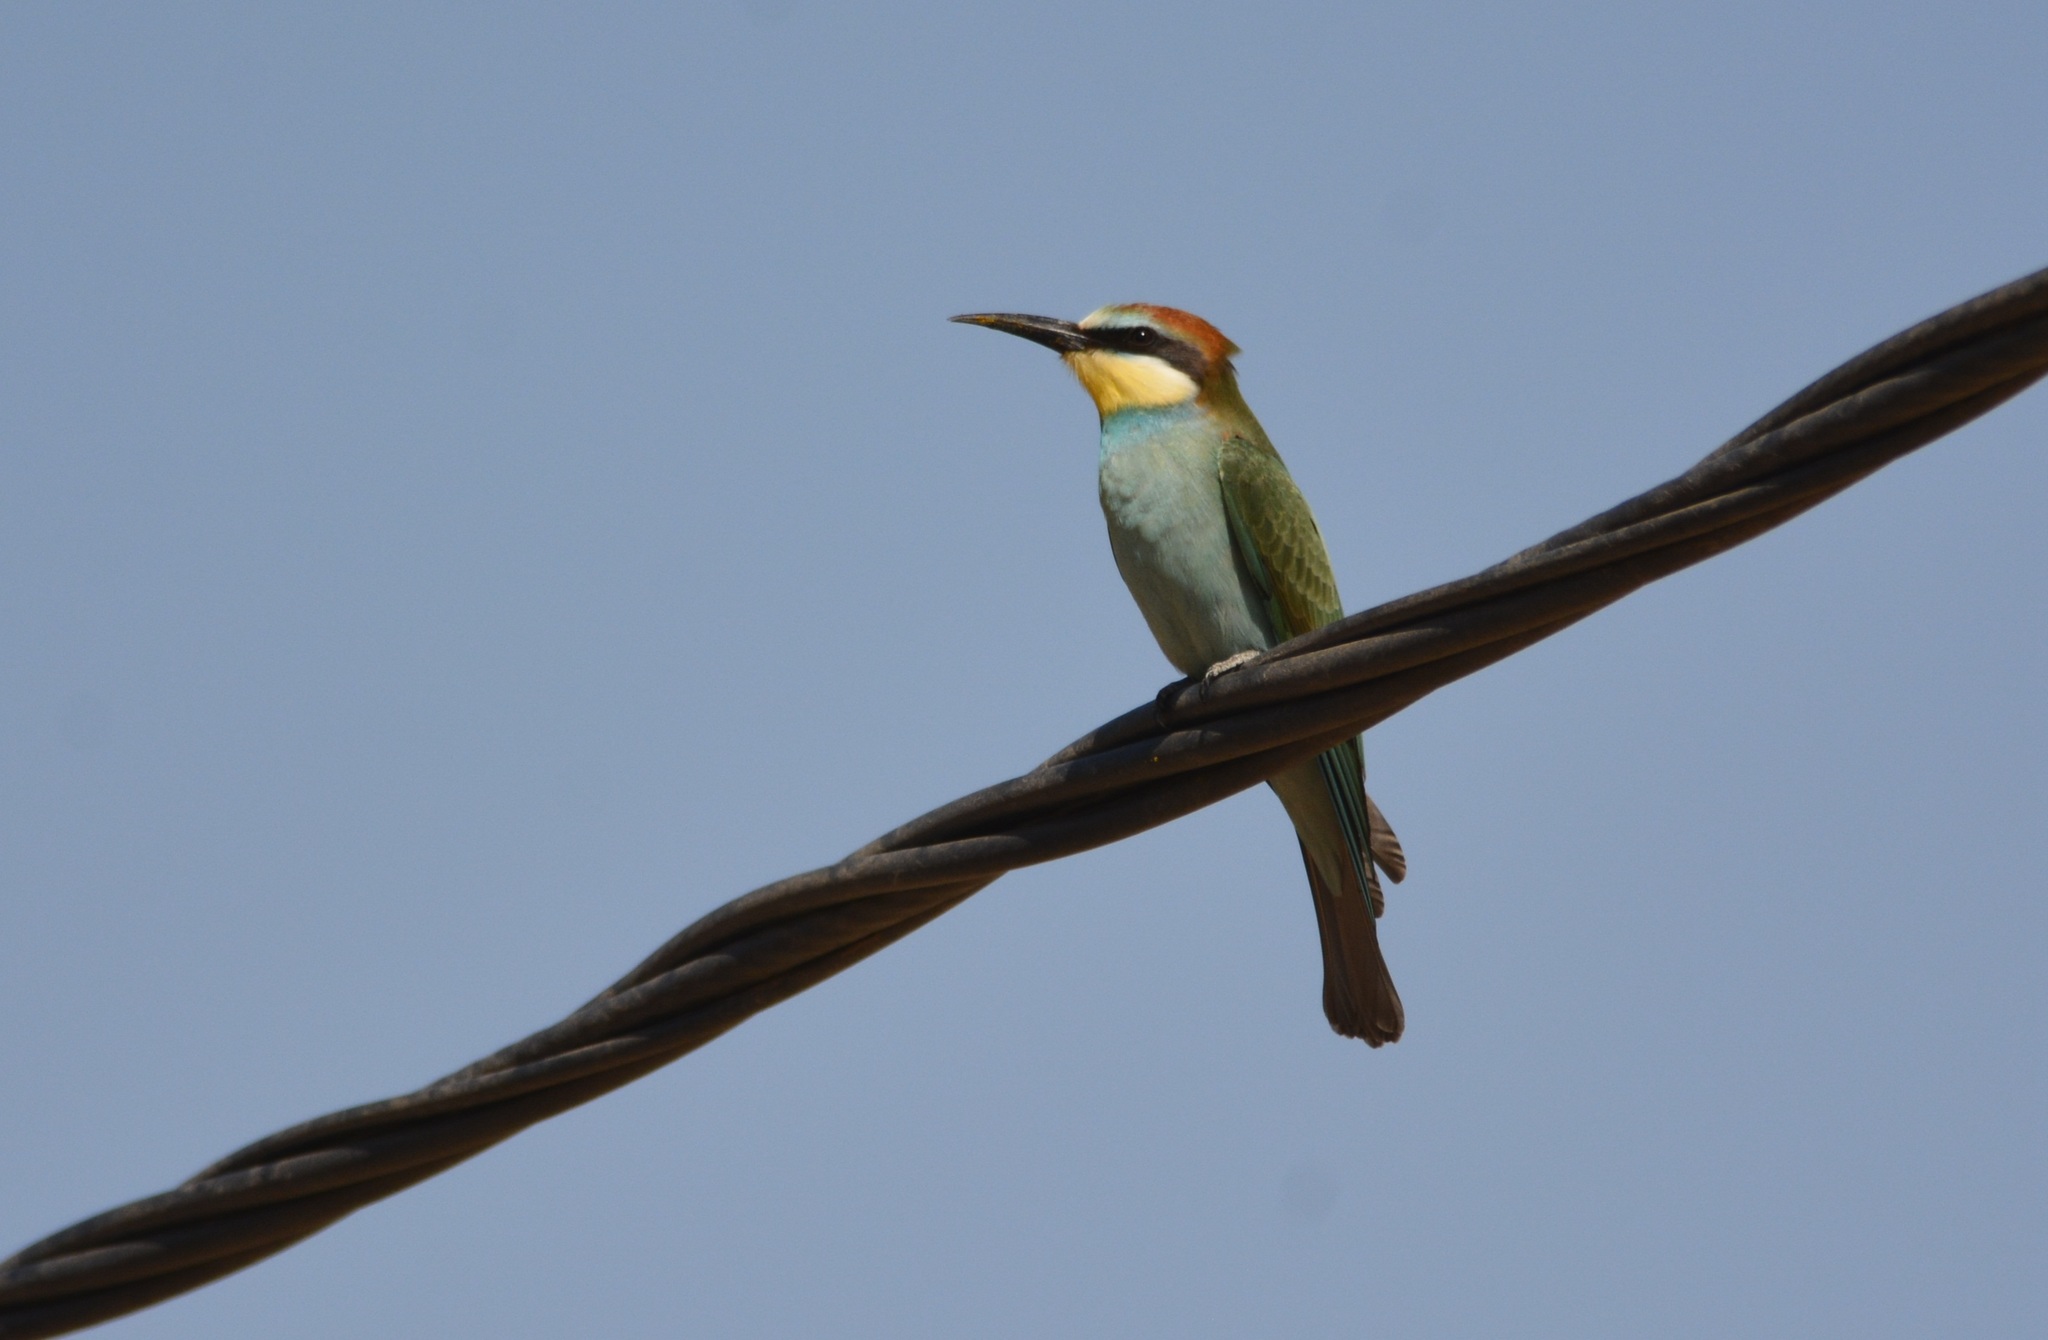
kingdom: Animalia
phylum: Chordata
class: Aves
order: Coraciiformes
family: Meropidae
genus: Merops
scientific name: Merops apiaster
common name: European bee-eater
